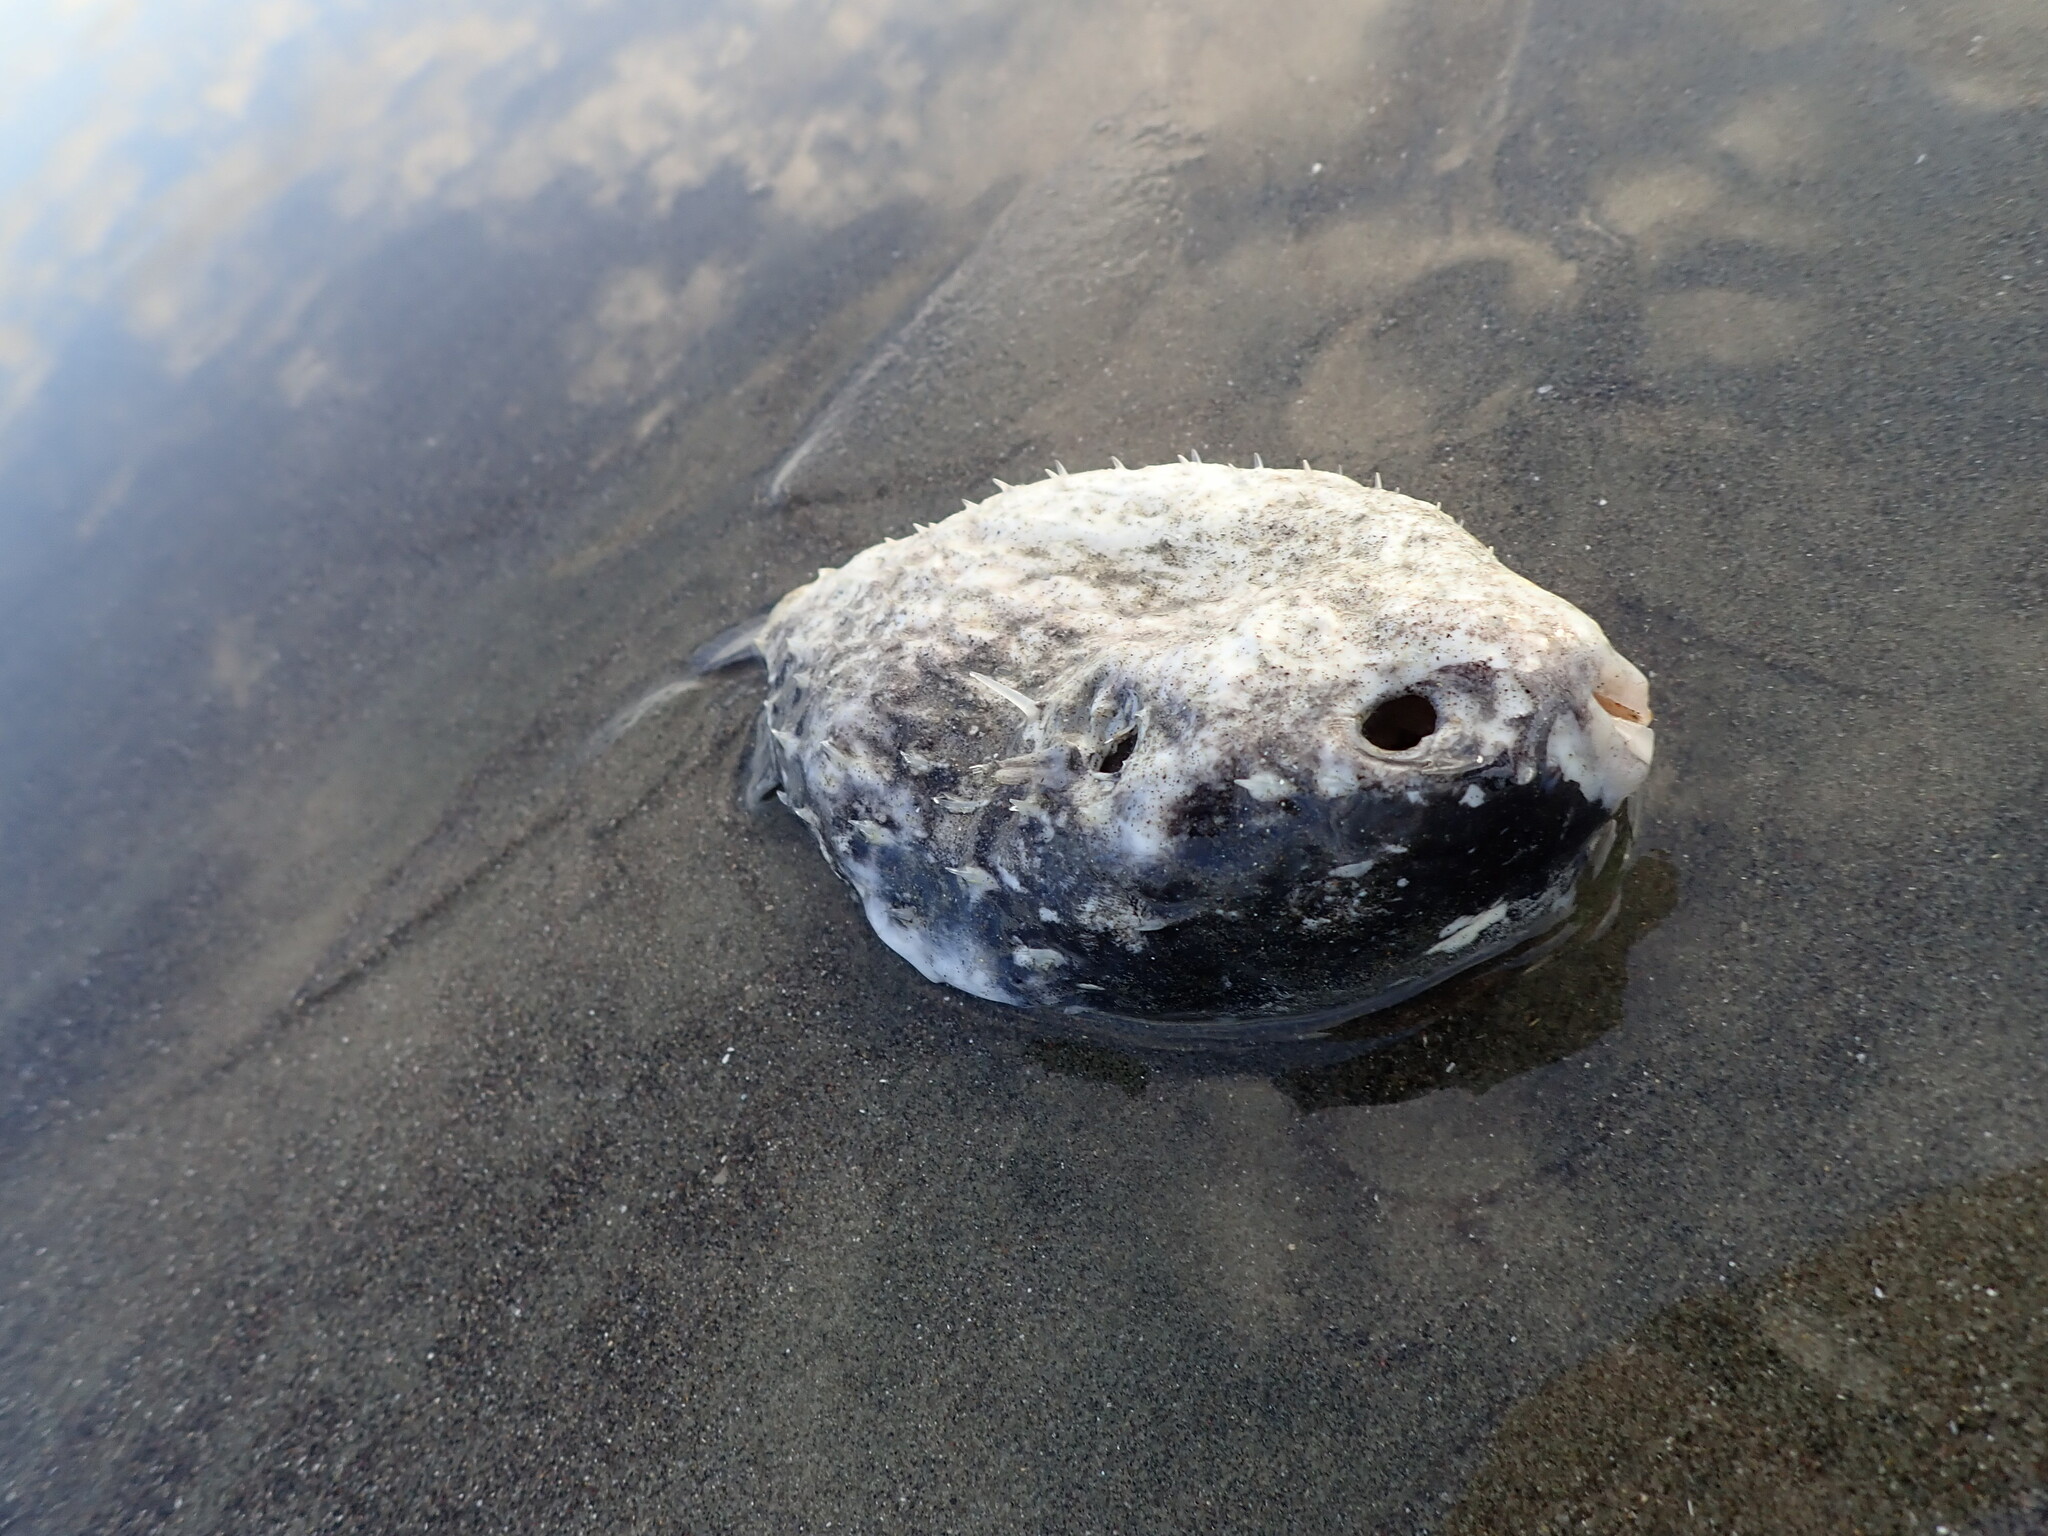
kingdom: Animalia
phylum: Chordata
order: Tetraodontiformes
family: Diodontidae
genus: Allomycterus
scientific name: Allomycterus pilatus
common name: No common name
